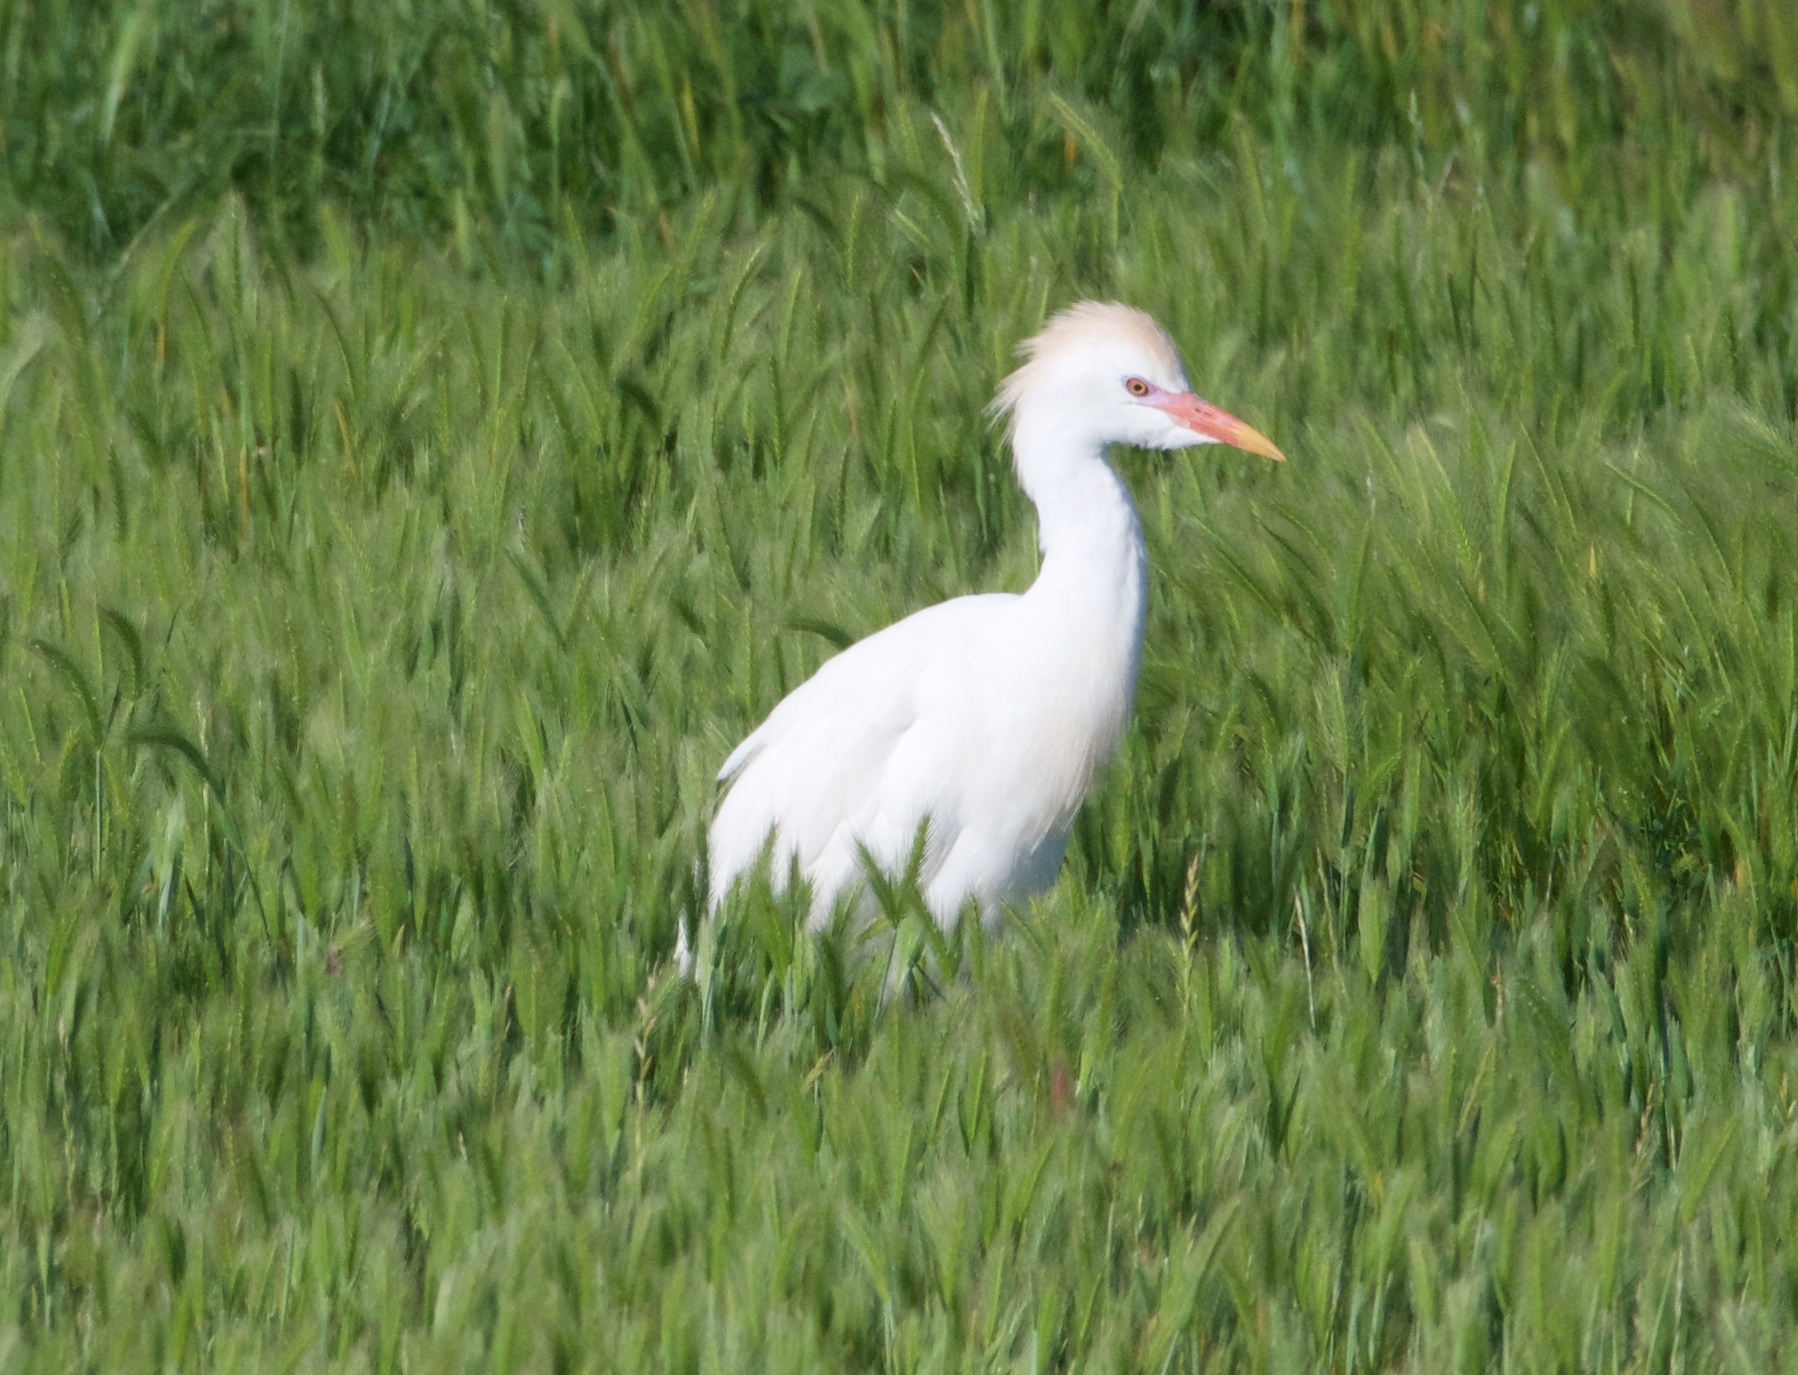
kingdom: Animalia
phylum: Chordata
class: Aves
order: Pelecaniformes
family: Ardeidae
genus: Bubulcus
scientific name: Bubulcus ibis
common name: Cattle egret
